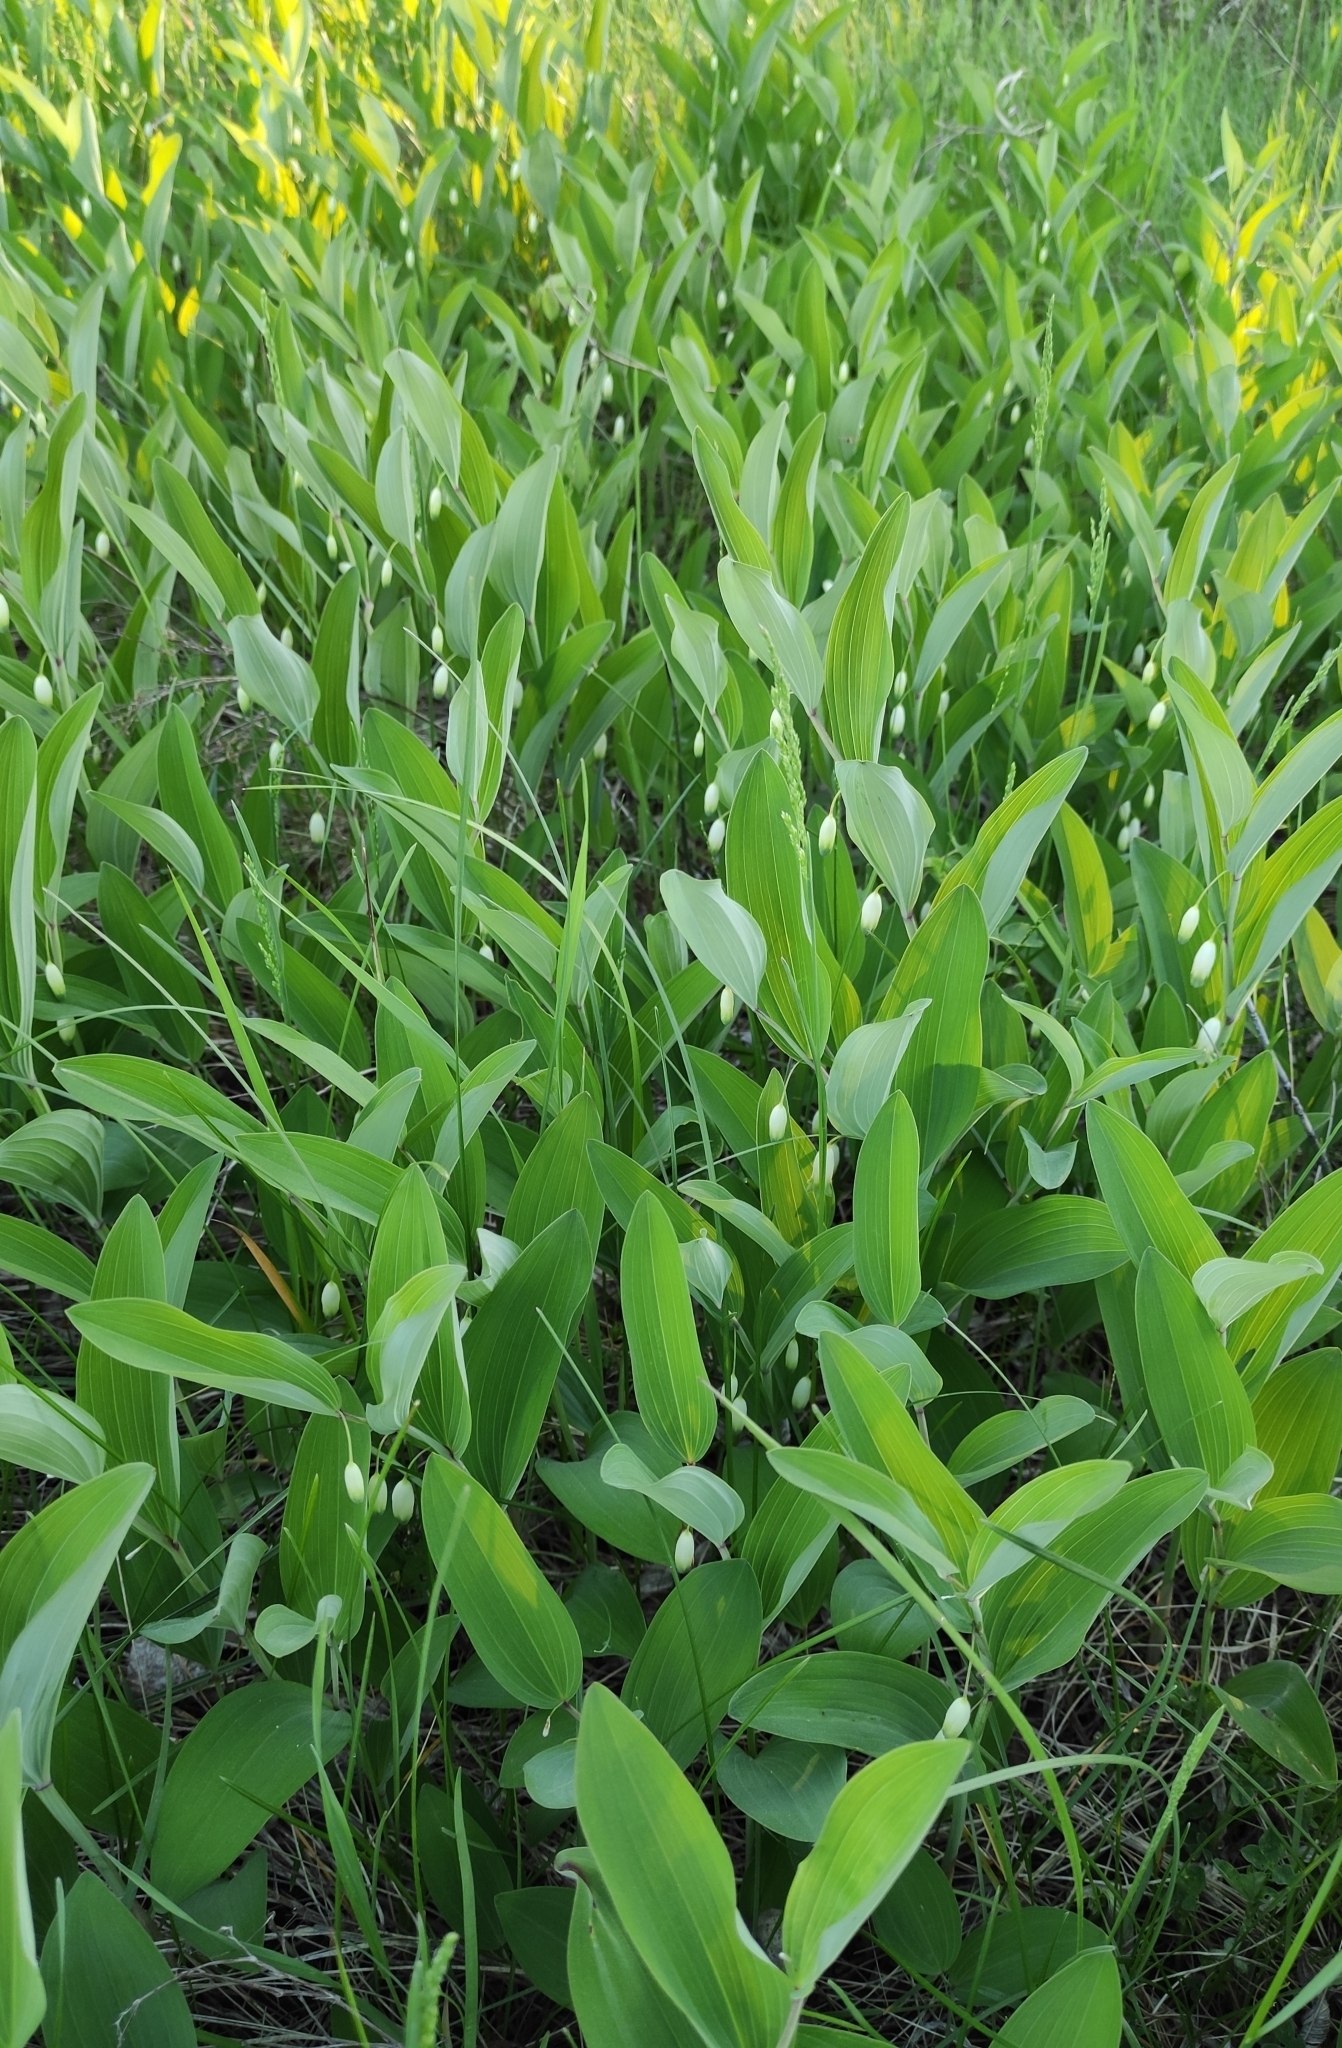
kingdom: Plantae
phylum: Tracheophyta
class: Liliopsida
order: Asparagales
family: Asparagaceae
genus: Polygonatum
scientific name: Polygonatum odoratum
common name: Angular solomon's-seal
